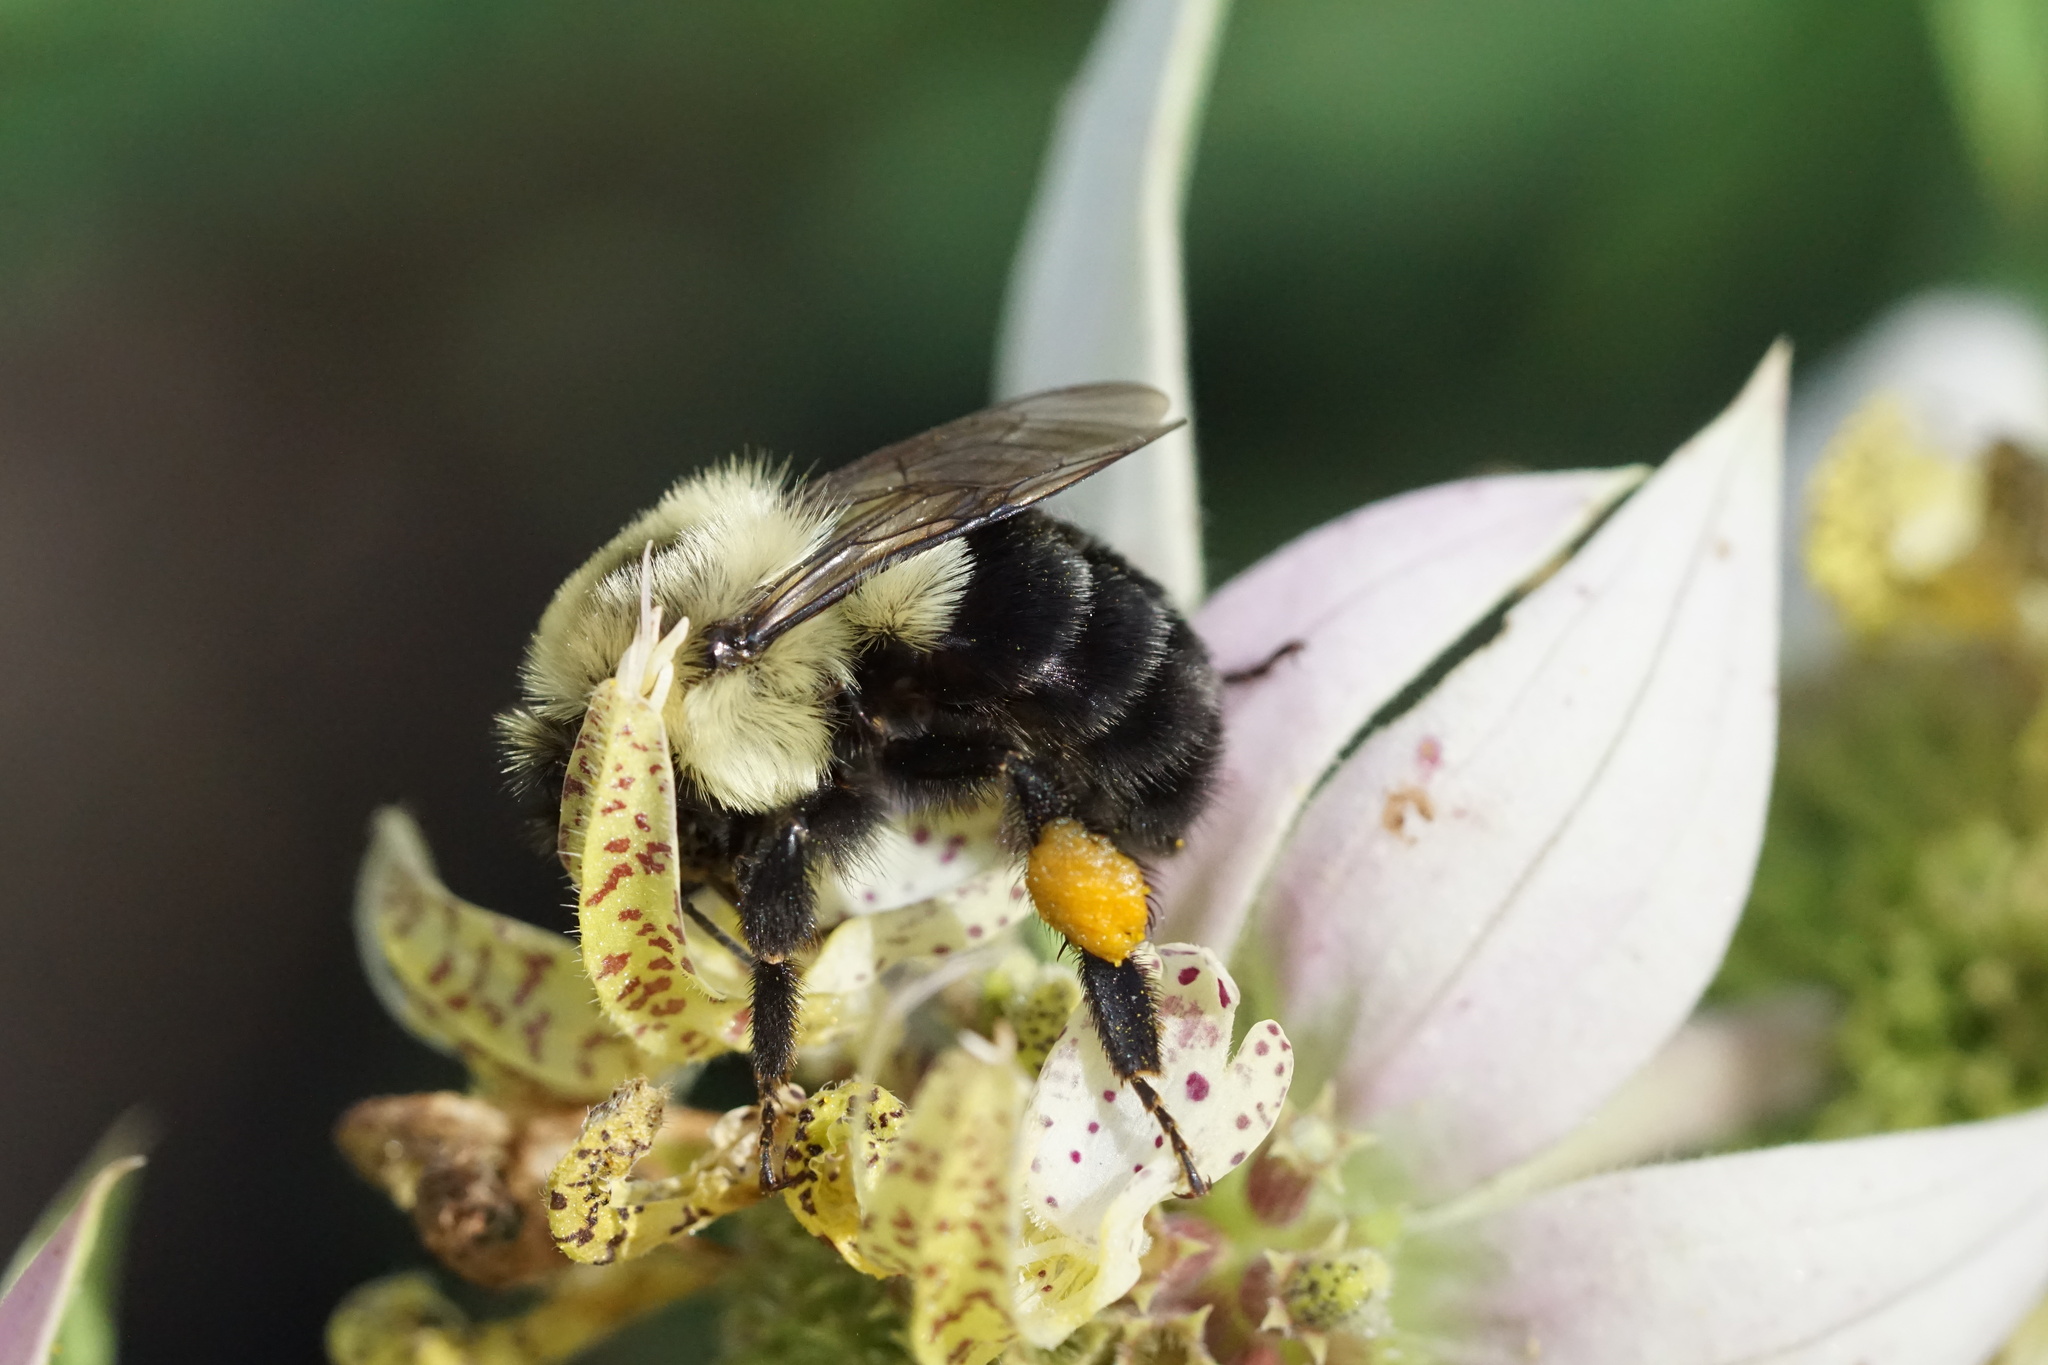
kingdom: Animalia
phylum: Arthropoda
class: Insecta
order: Hymenoptera
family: Apidae
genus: Bombus
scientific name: Bombus impatiens
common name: Common eastern bumble bee
